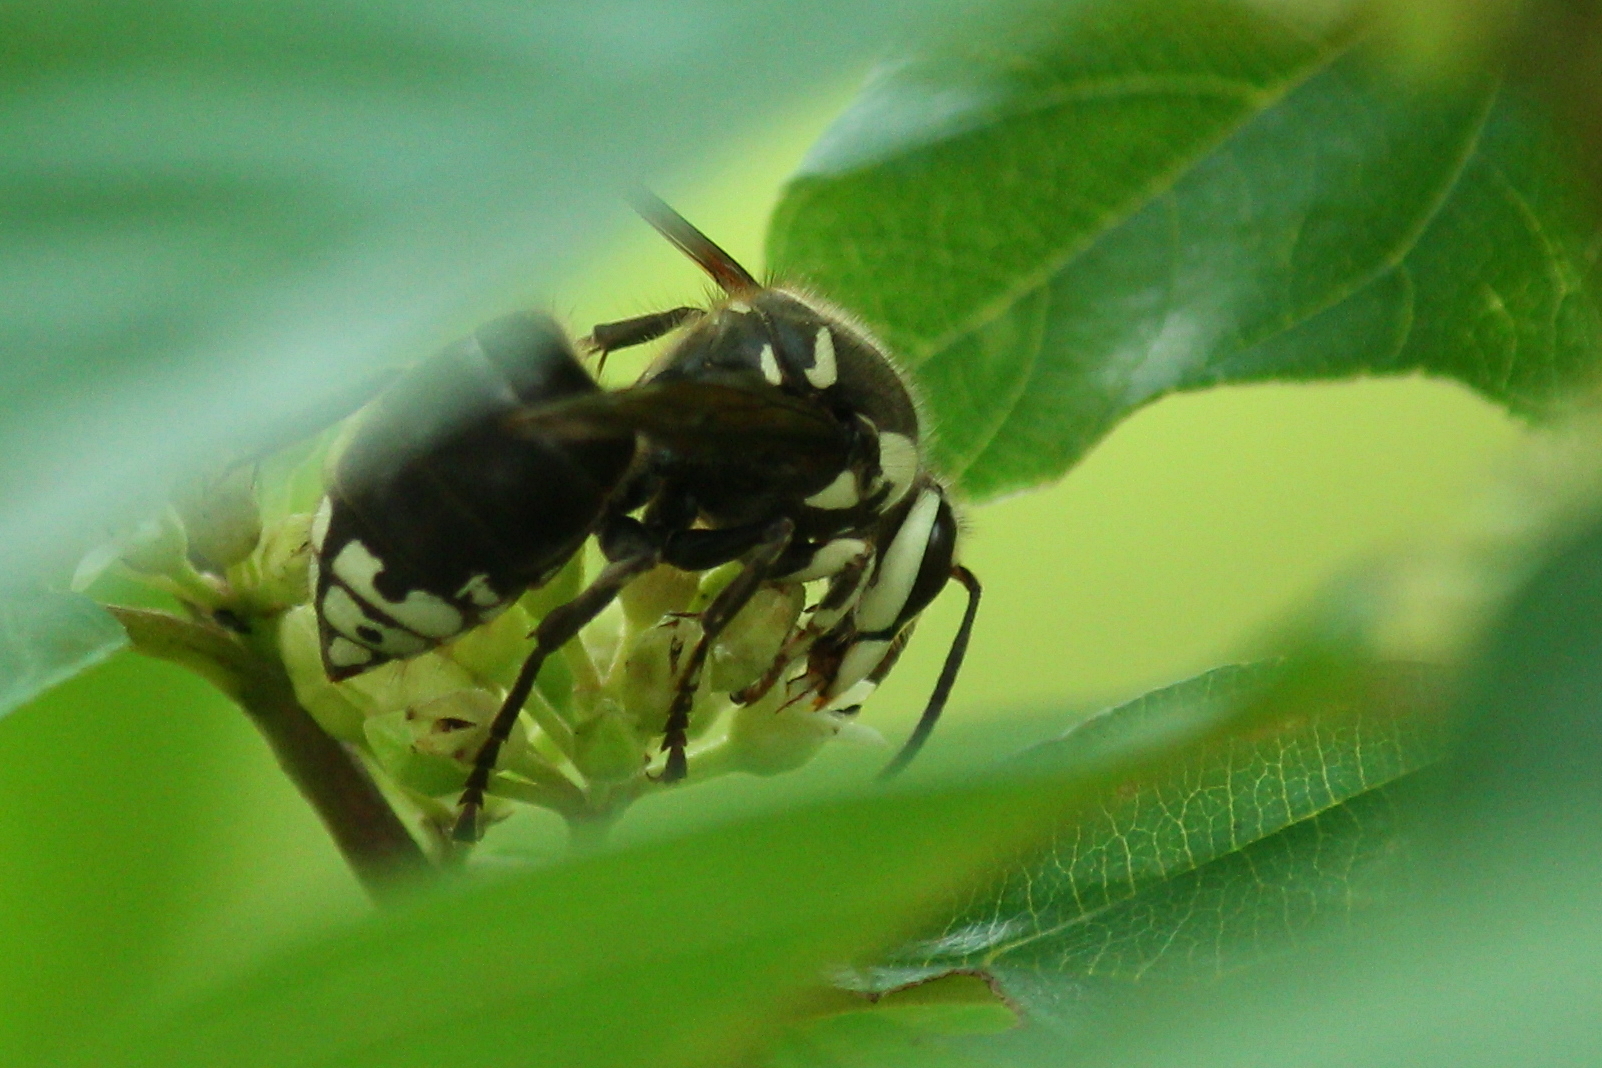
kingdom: Animalia
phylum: Arthropoda
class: Insecta
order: Hymenoptera
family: Vespidae
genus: Dolichovespula
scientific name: Dolichovespula maculata
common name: Bald-faced hornet
